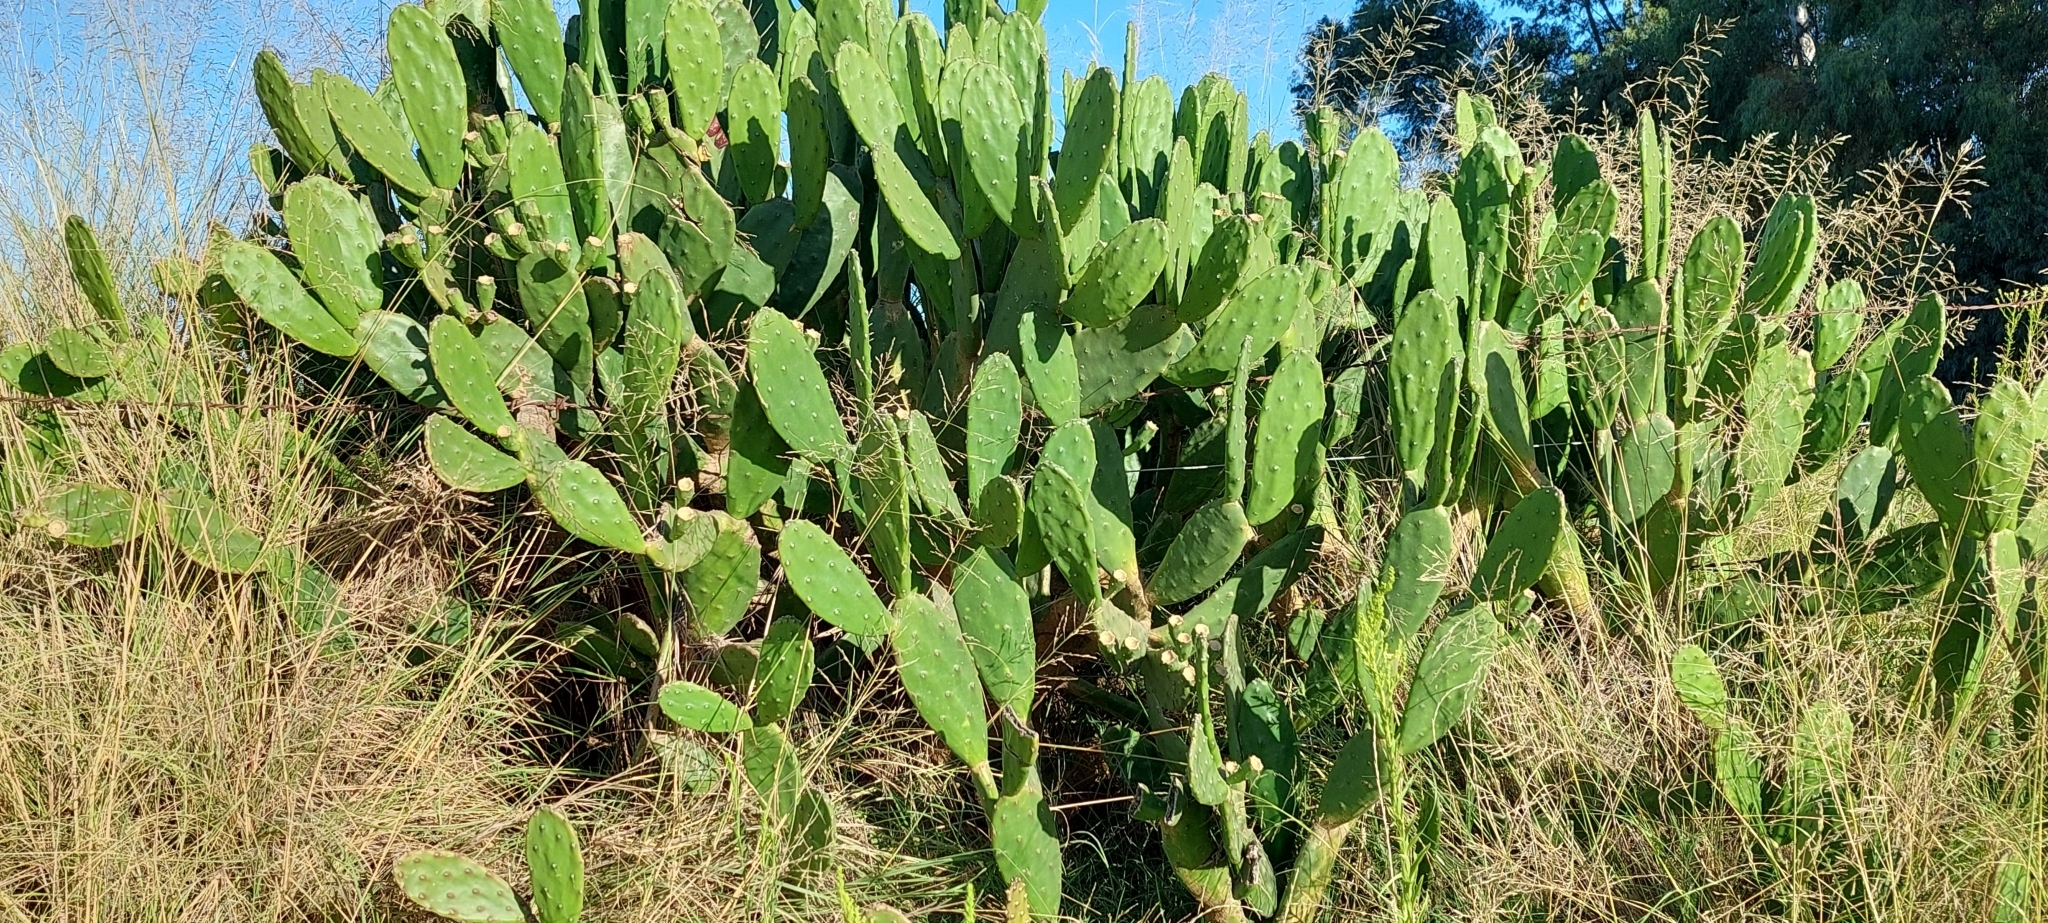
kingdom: Plantae
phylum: Tracheophyta
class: Magnoliopsida
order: Caryophyllales
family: Cactaceae
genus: Opuntia
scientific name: Opuntia elata
